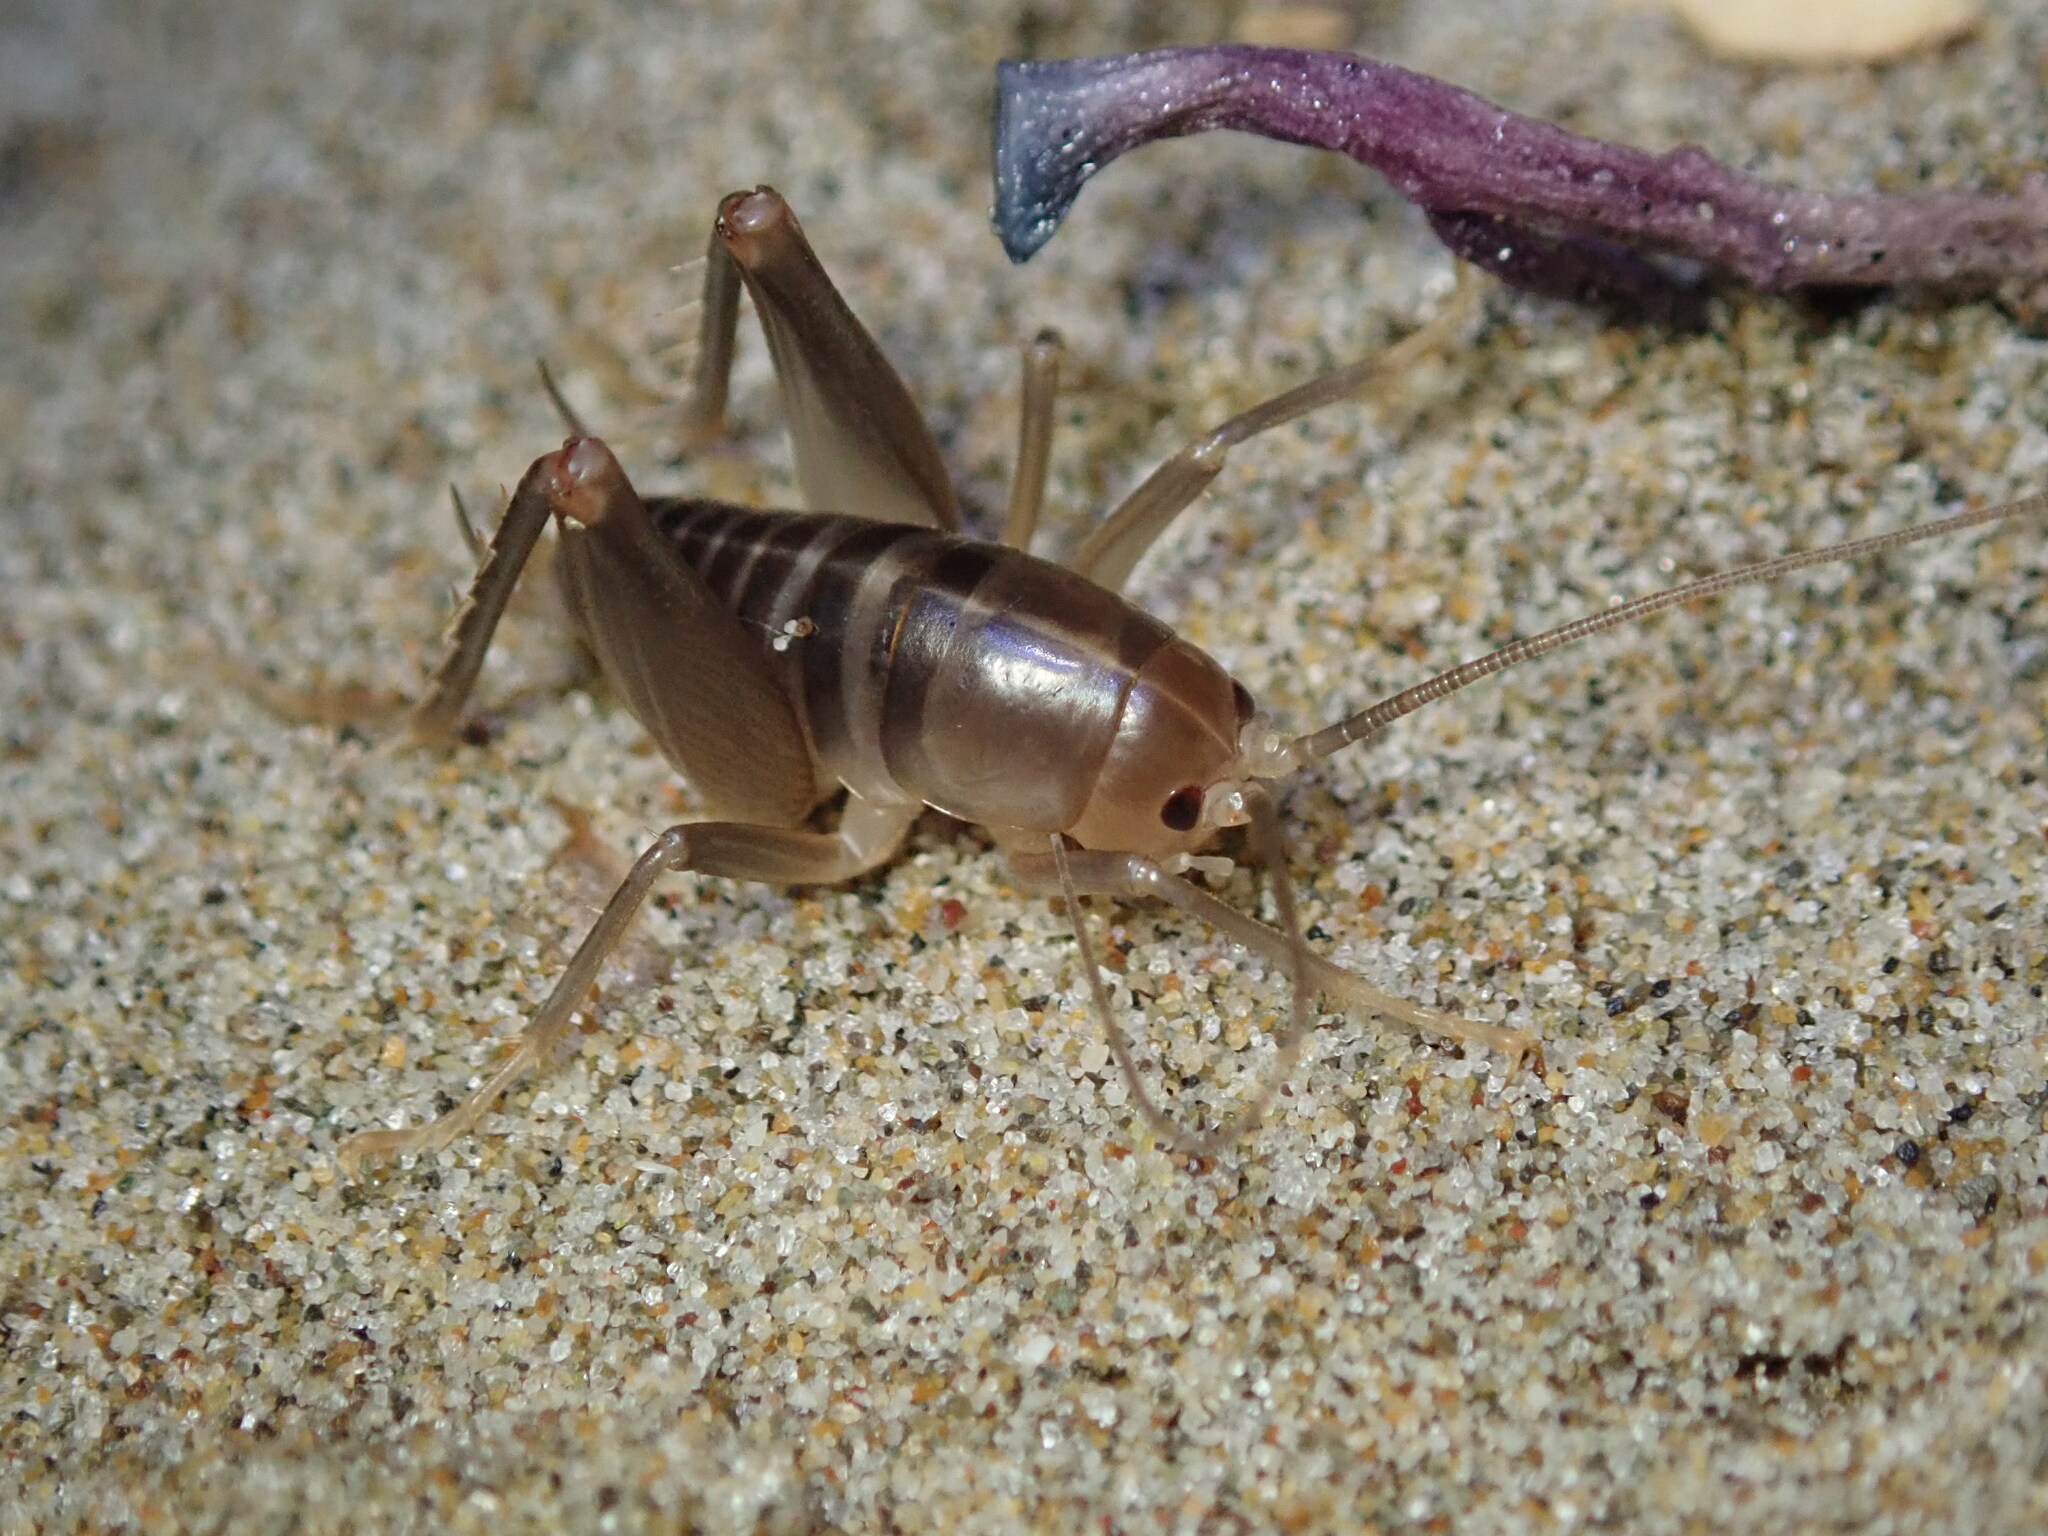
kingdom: Animalia
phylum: Arthropoda
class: Insecta
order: Orthoptera
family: Rhaphidophoridae
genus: Ceuthophilus
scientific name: Ceuthophilus californianus
